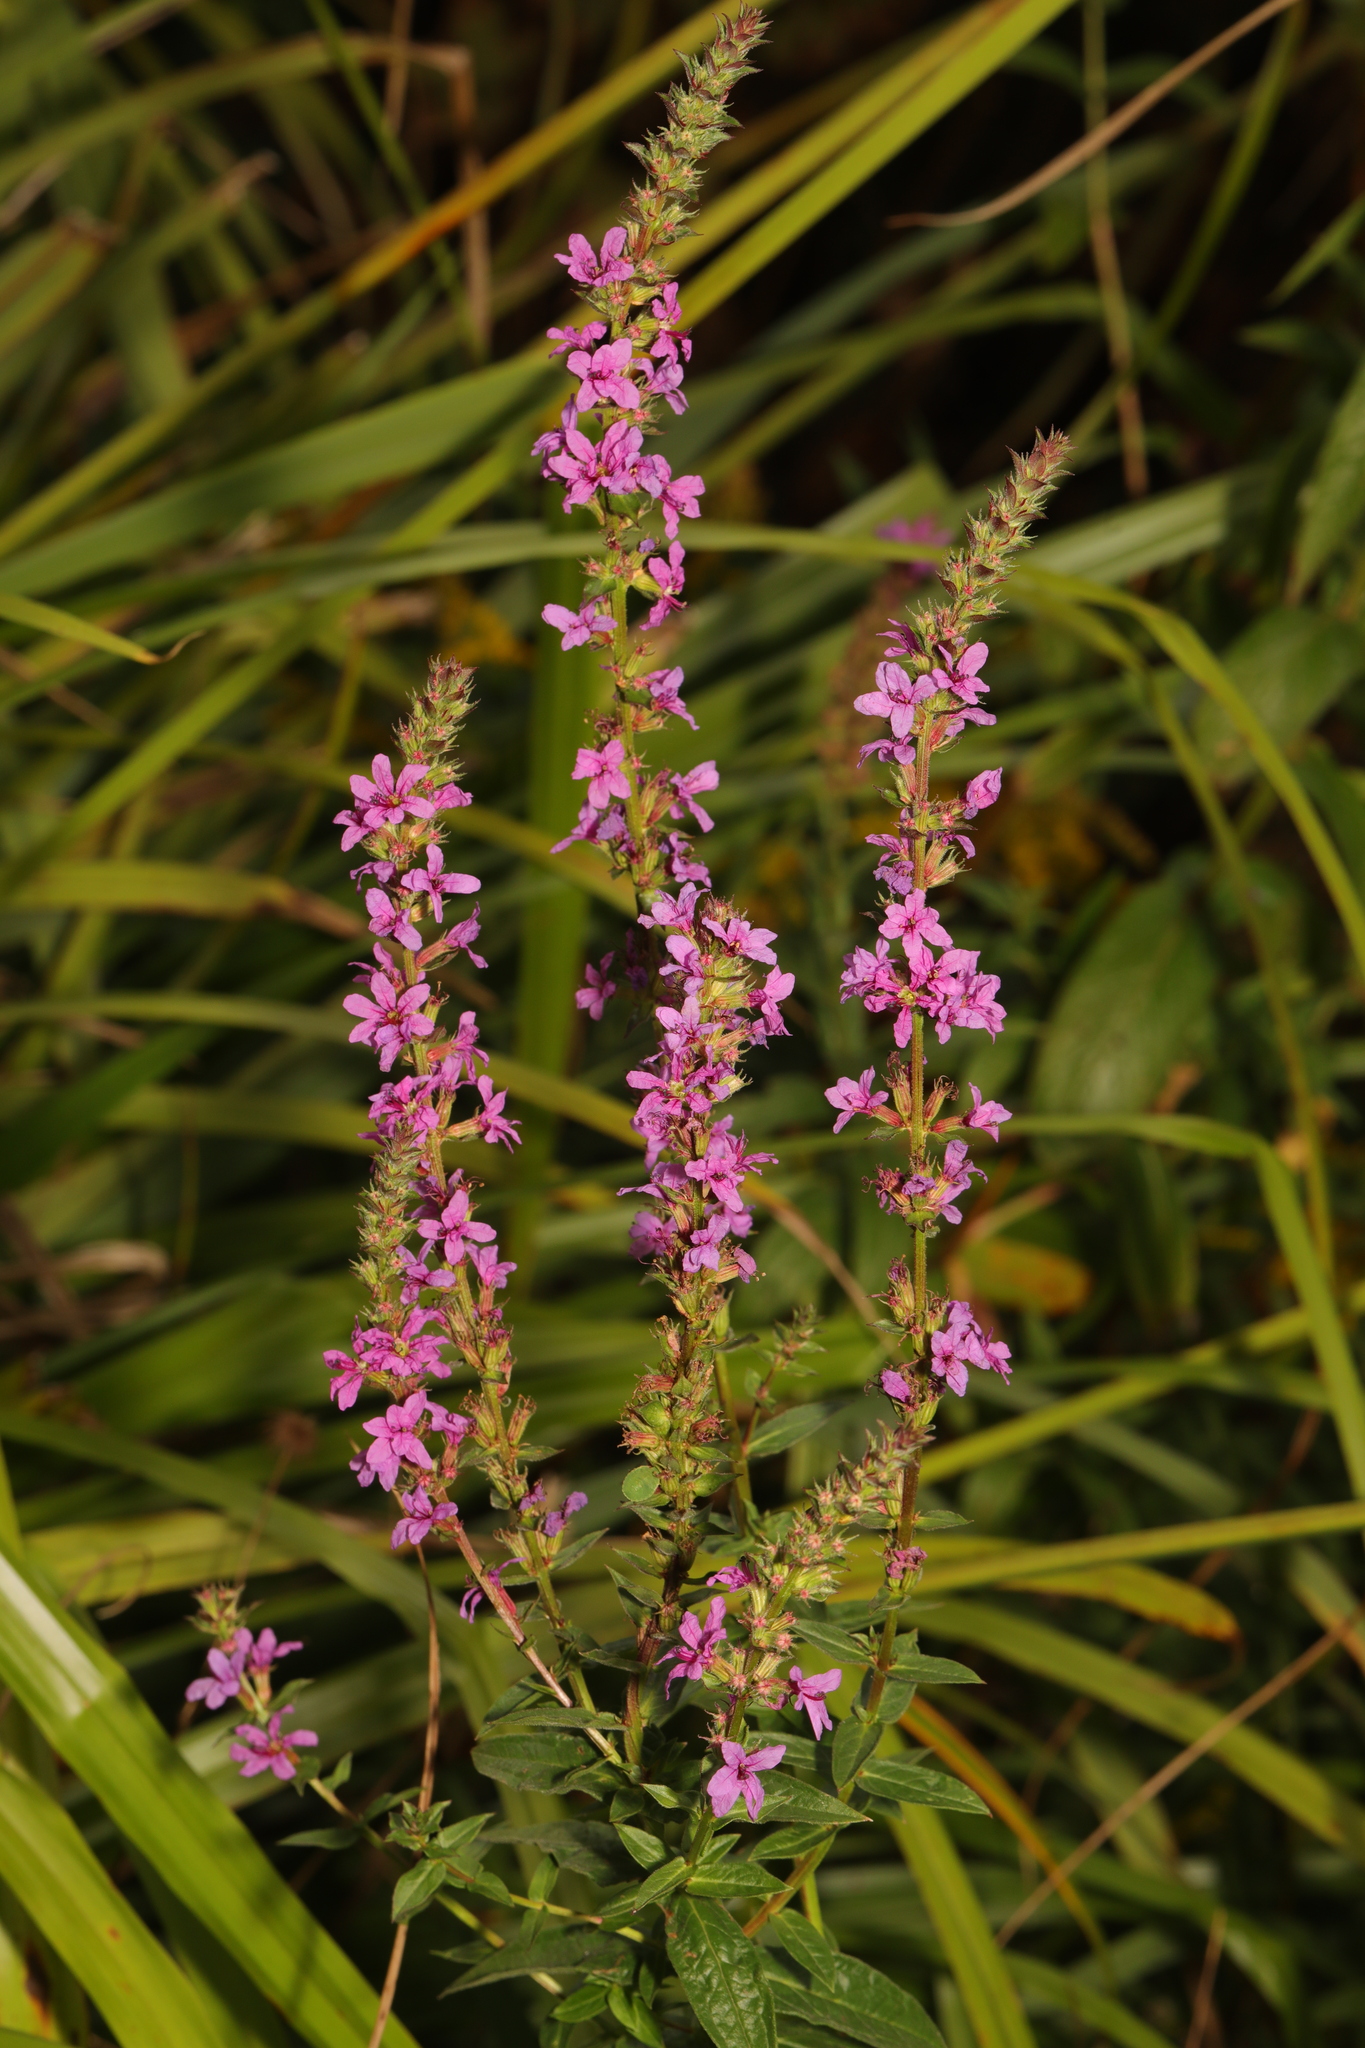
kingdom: Plantae
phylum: Tracheophyta
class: Magnoliopsida
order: Myrtales
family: Lythraceae
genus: Lythrum
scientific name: Lythrum salicaria
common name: Purple loosestrife
